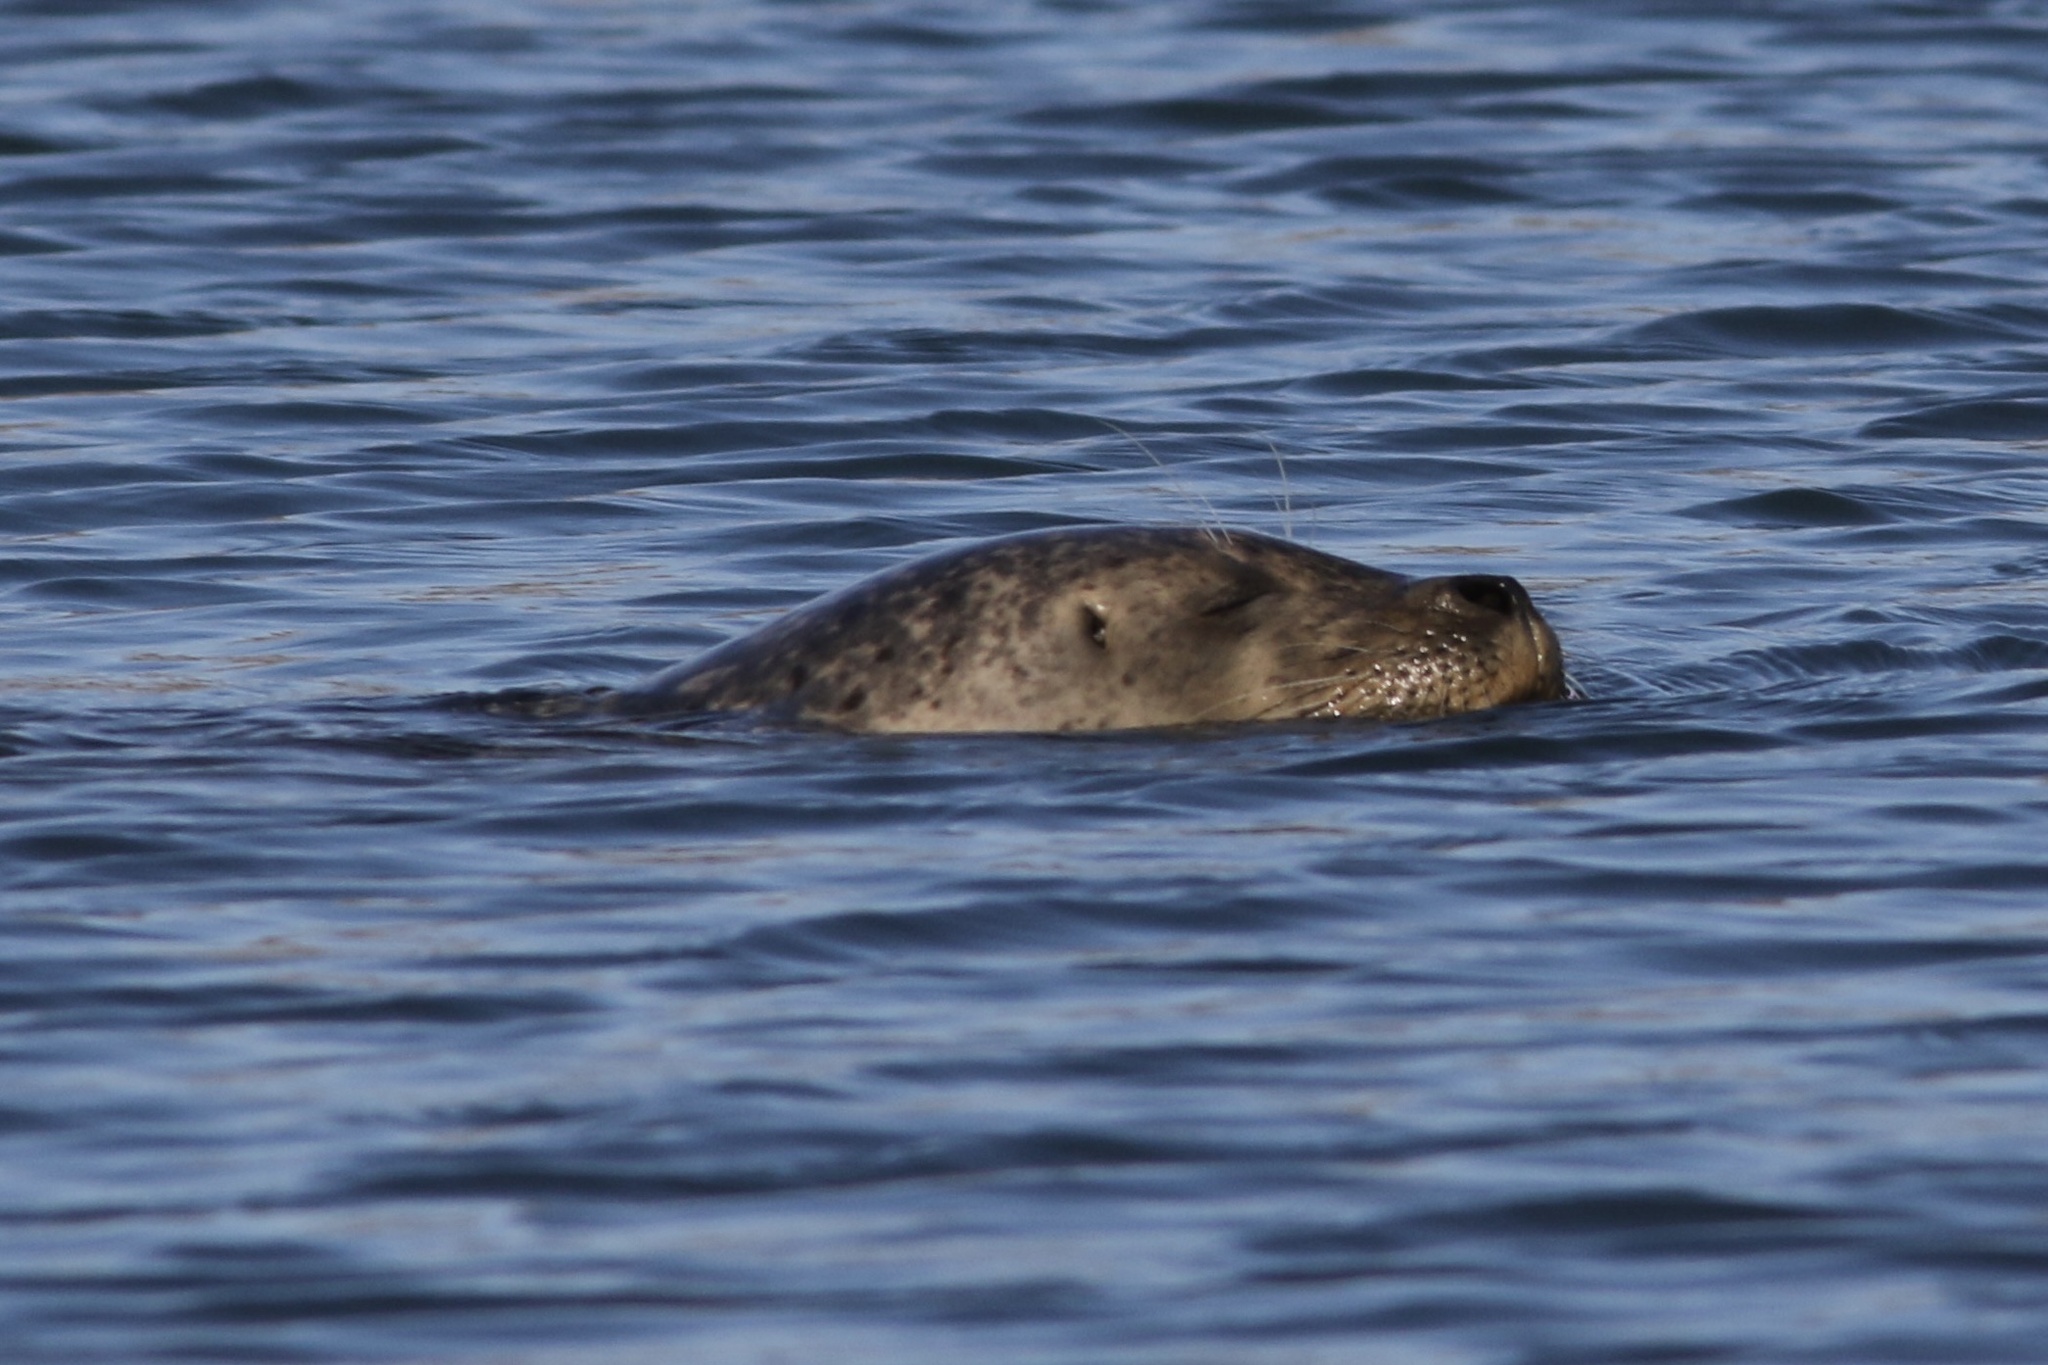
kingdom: Animalia
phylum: Chordata
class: Mammalia
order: Carnivora
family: Phocidae
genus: Phoca
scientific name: Phoca vitulina
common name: Harbor seal
